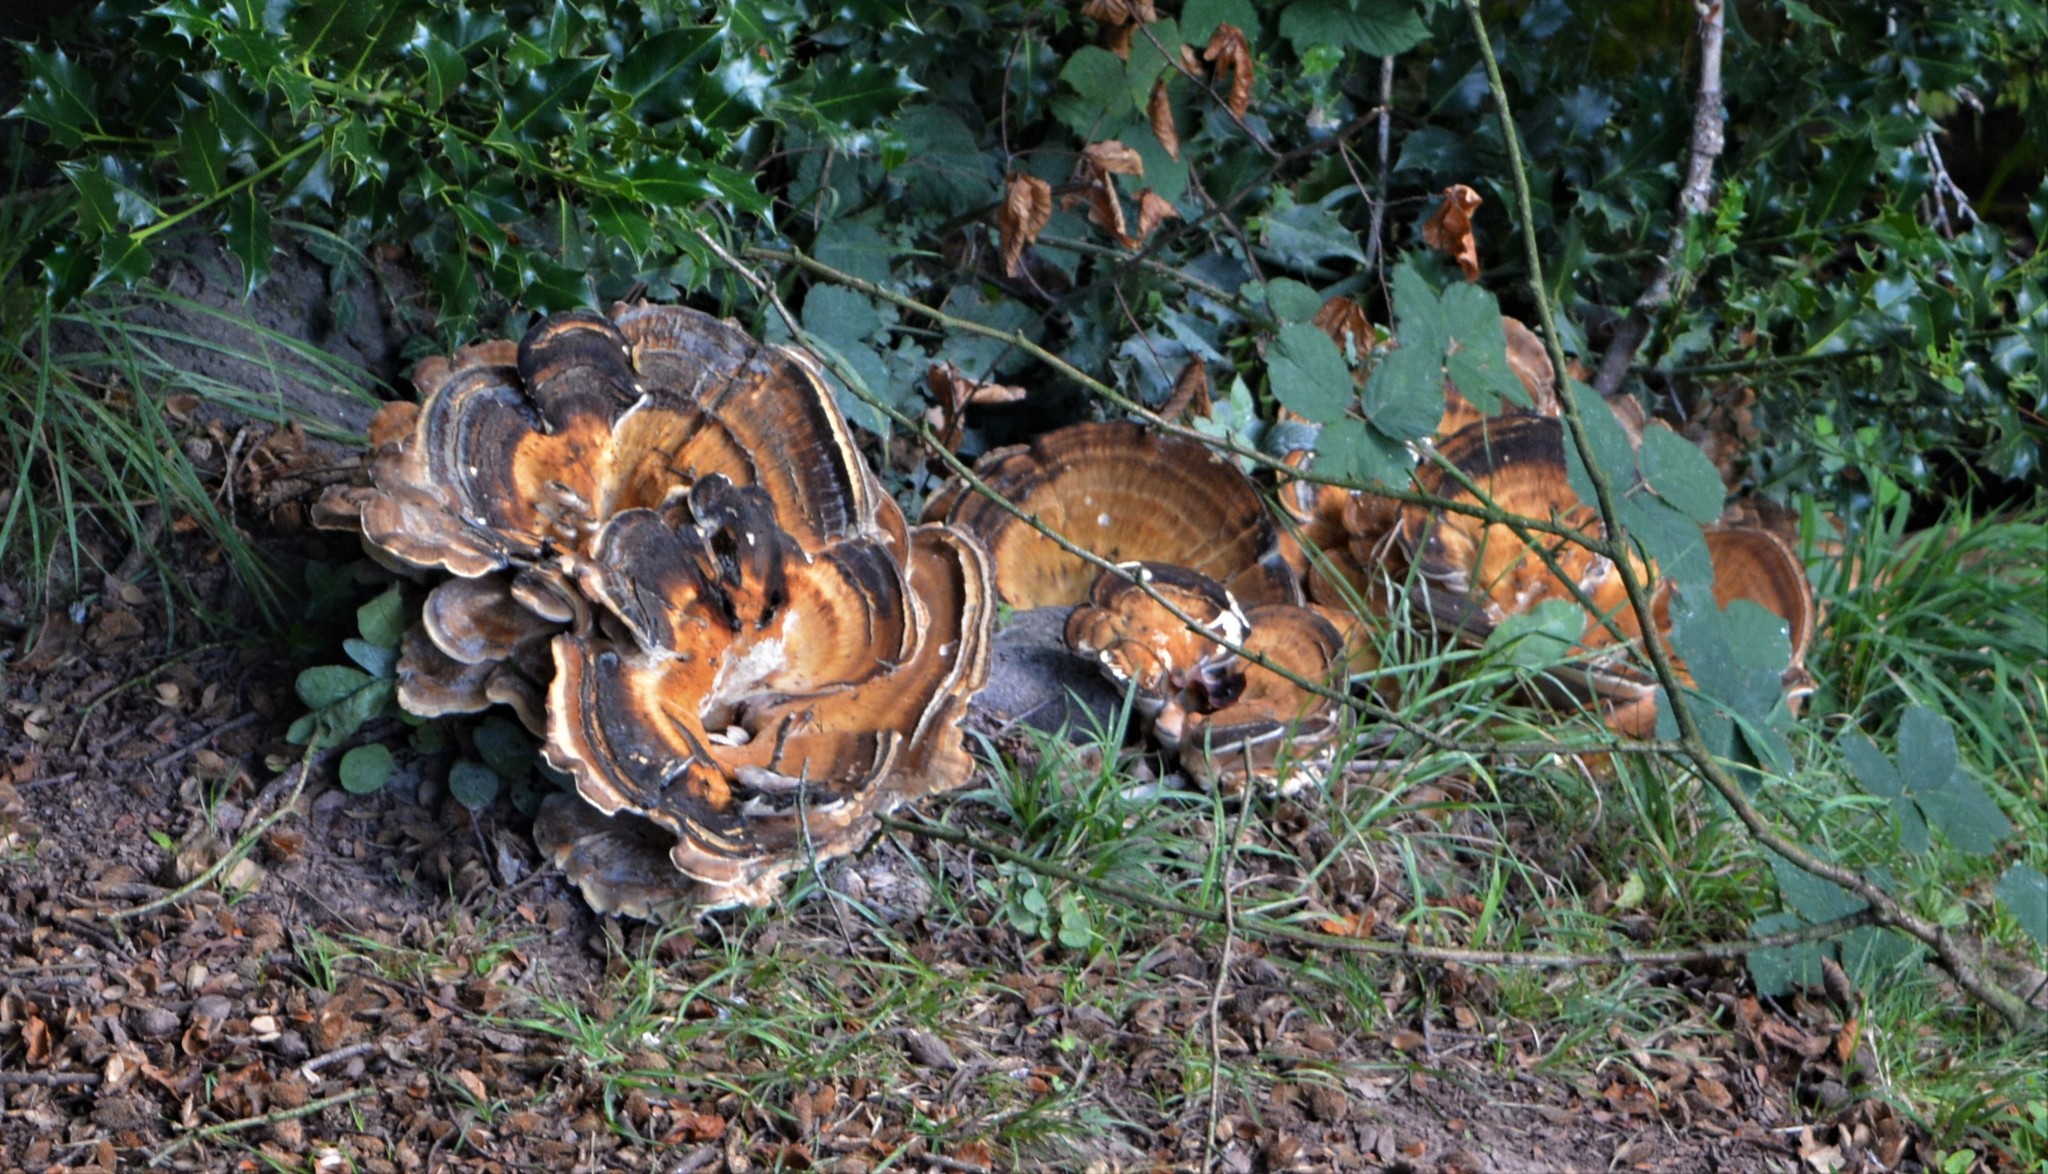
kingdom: Fungi
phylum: Basidiomycota
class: Agaricomycetes
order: Polyporales
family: Meripilaceae
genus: Meripilus
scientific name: Meripilus giganteus
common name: Giant polypore
